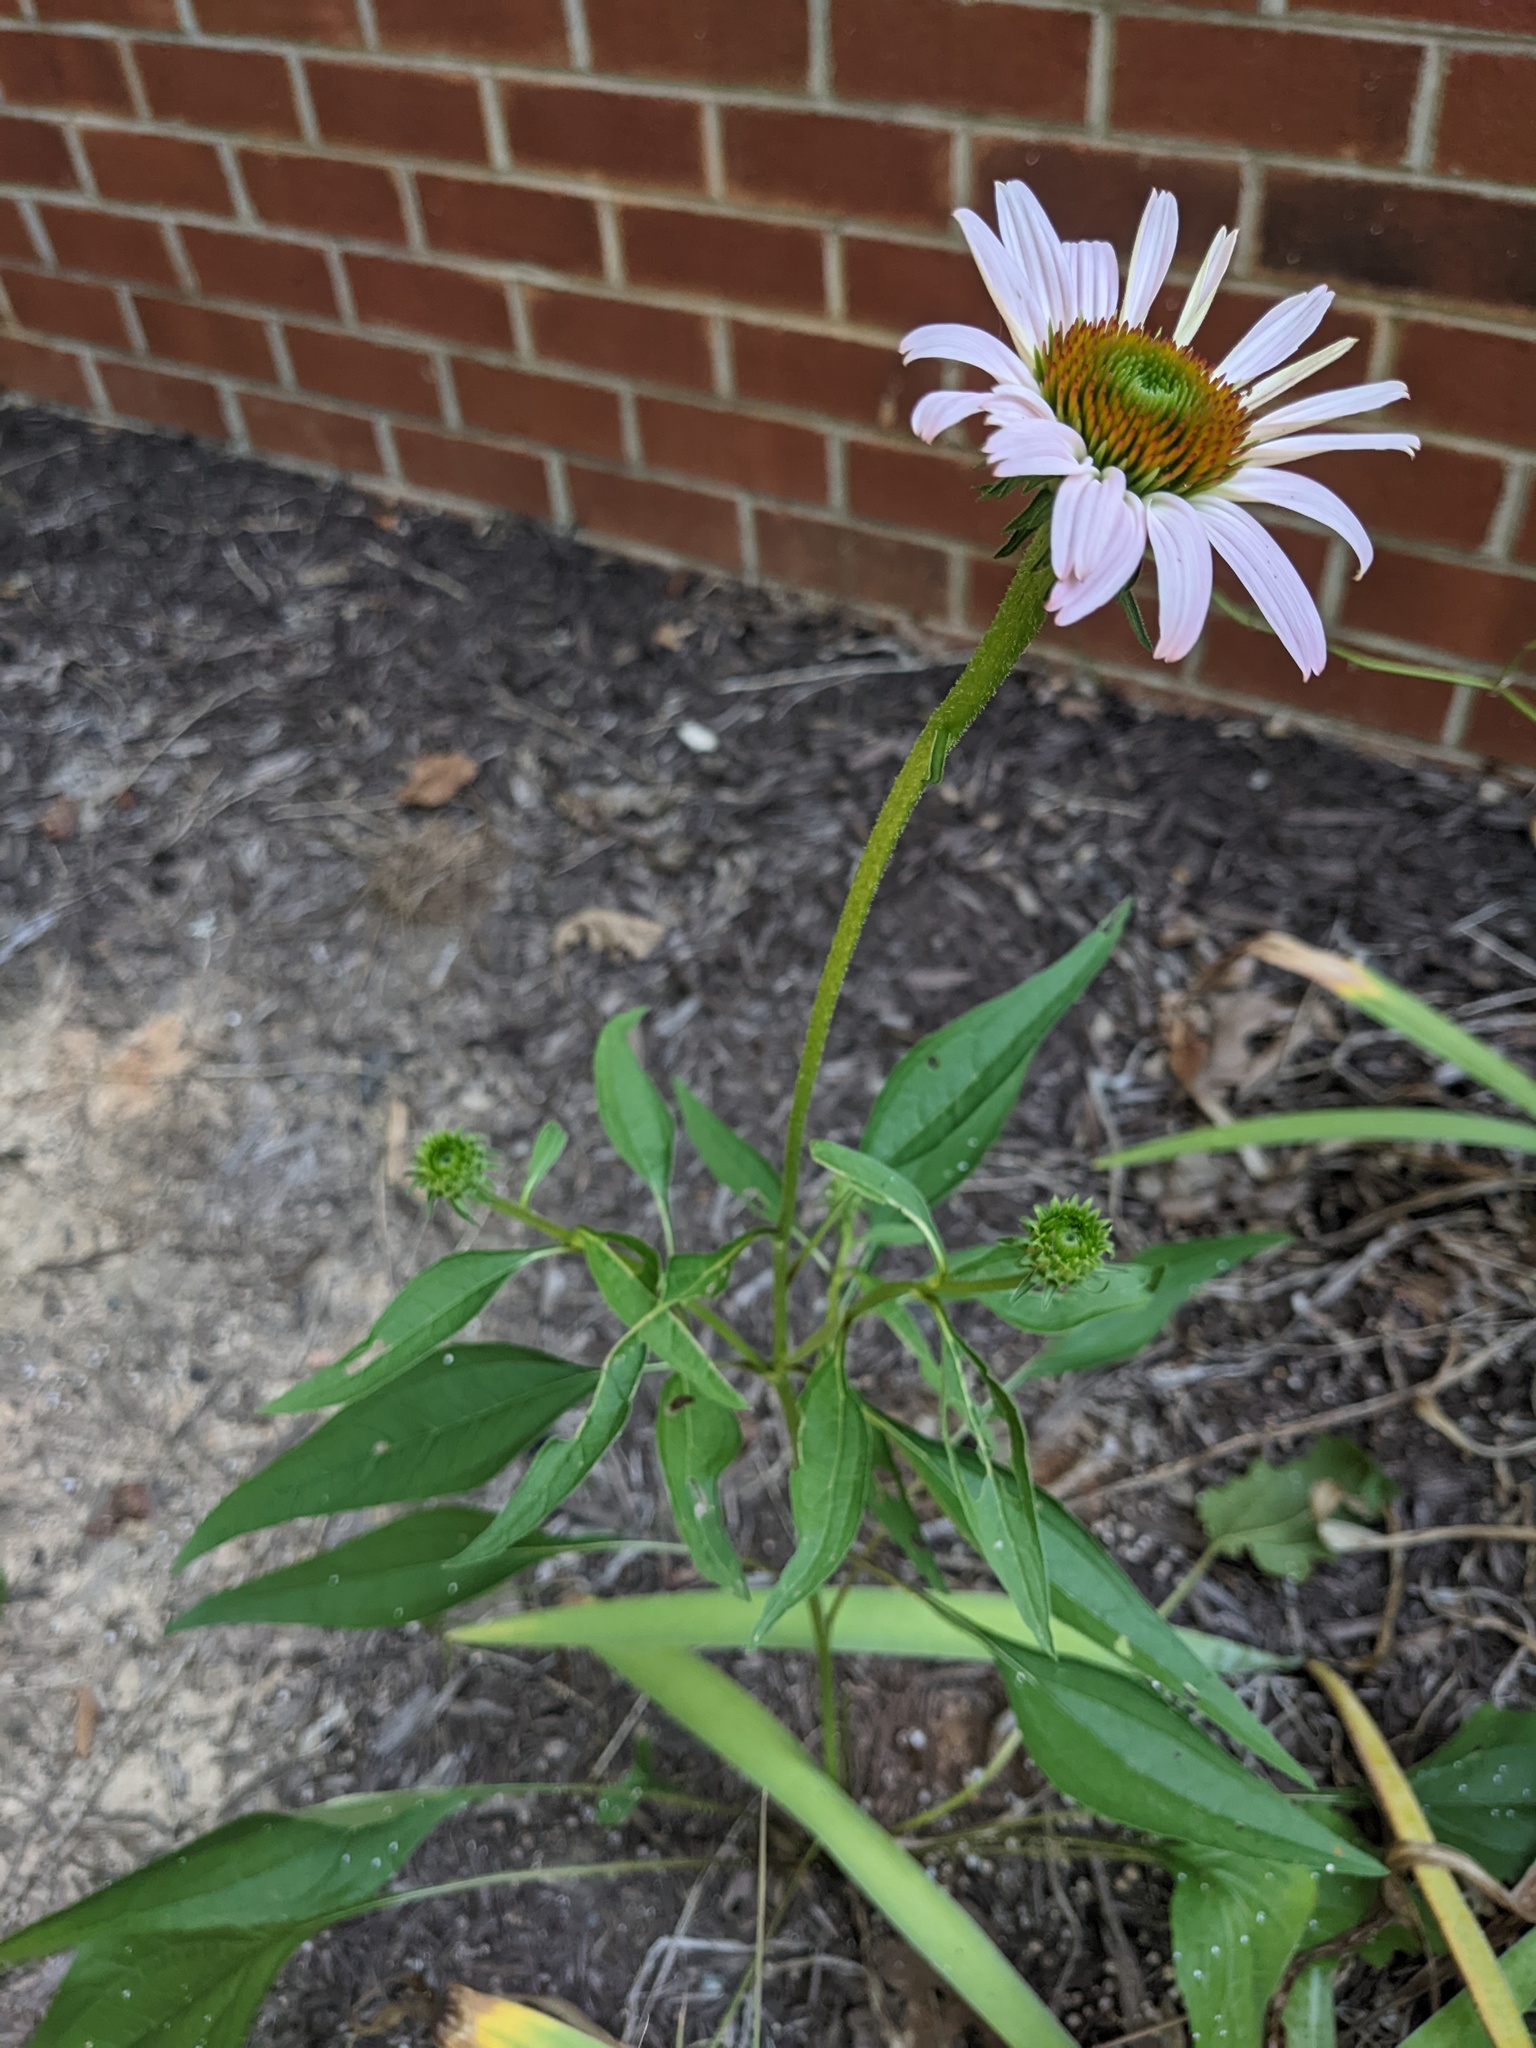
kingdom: Plantae
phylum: Tracheophyta
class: Magnoliopsida
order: Asterales
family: Asteraceae
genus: Echinacea
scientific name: Echinacea purpurea
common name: Broad-leaved purple coneflower
